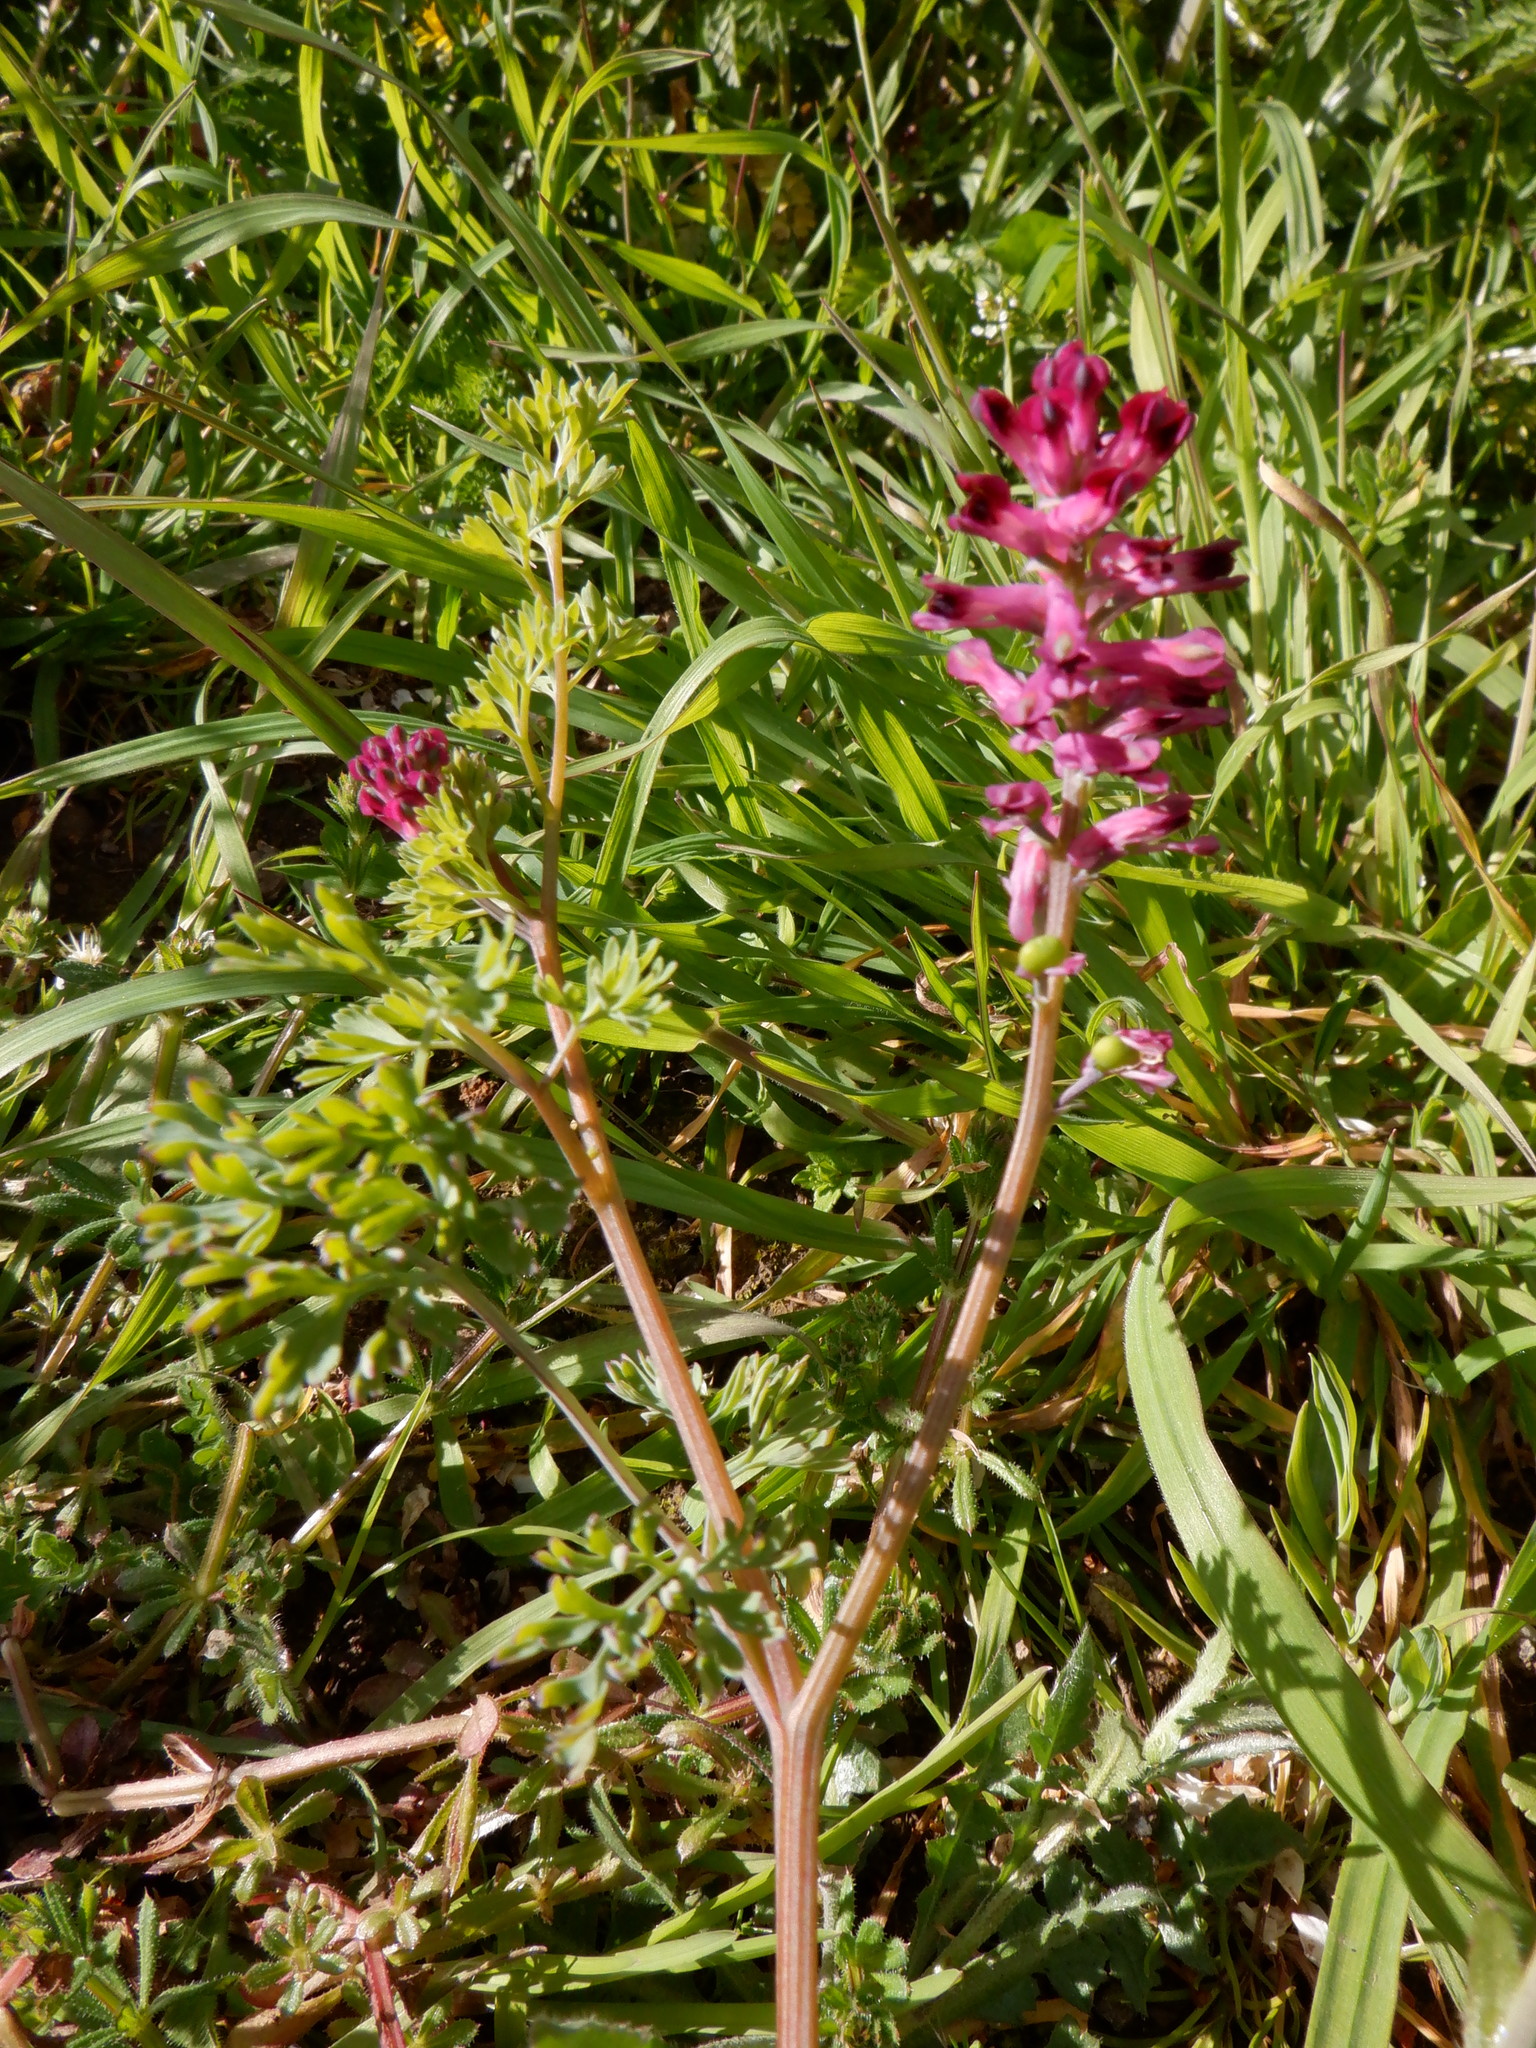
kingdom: Plantae
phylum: Tracheophyta
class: Magnoliopsida
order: Ranunculales
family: Papaveraceae
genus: Fumaria
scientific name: Fumaria officinalis
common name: Common fumitory
